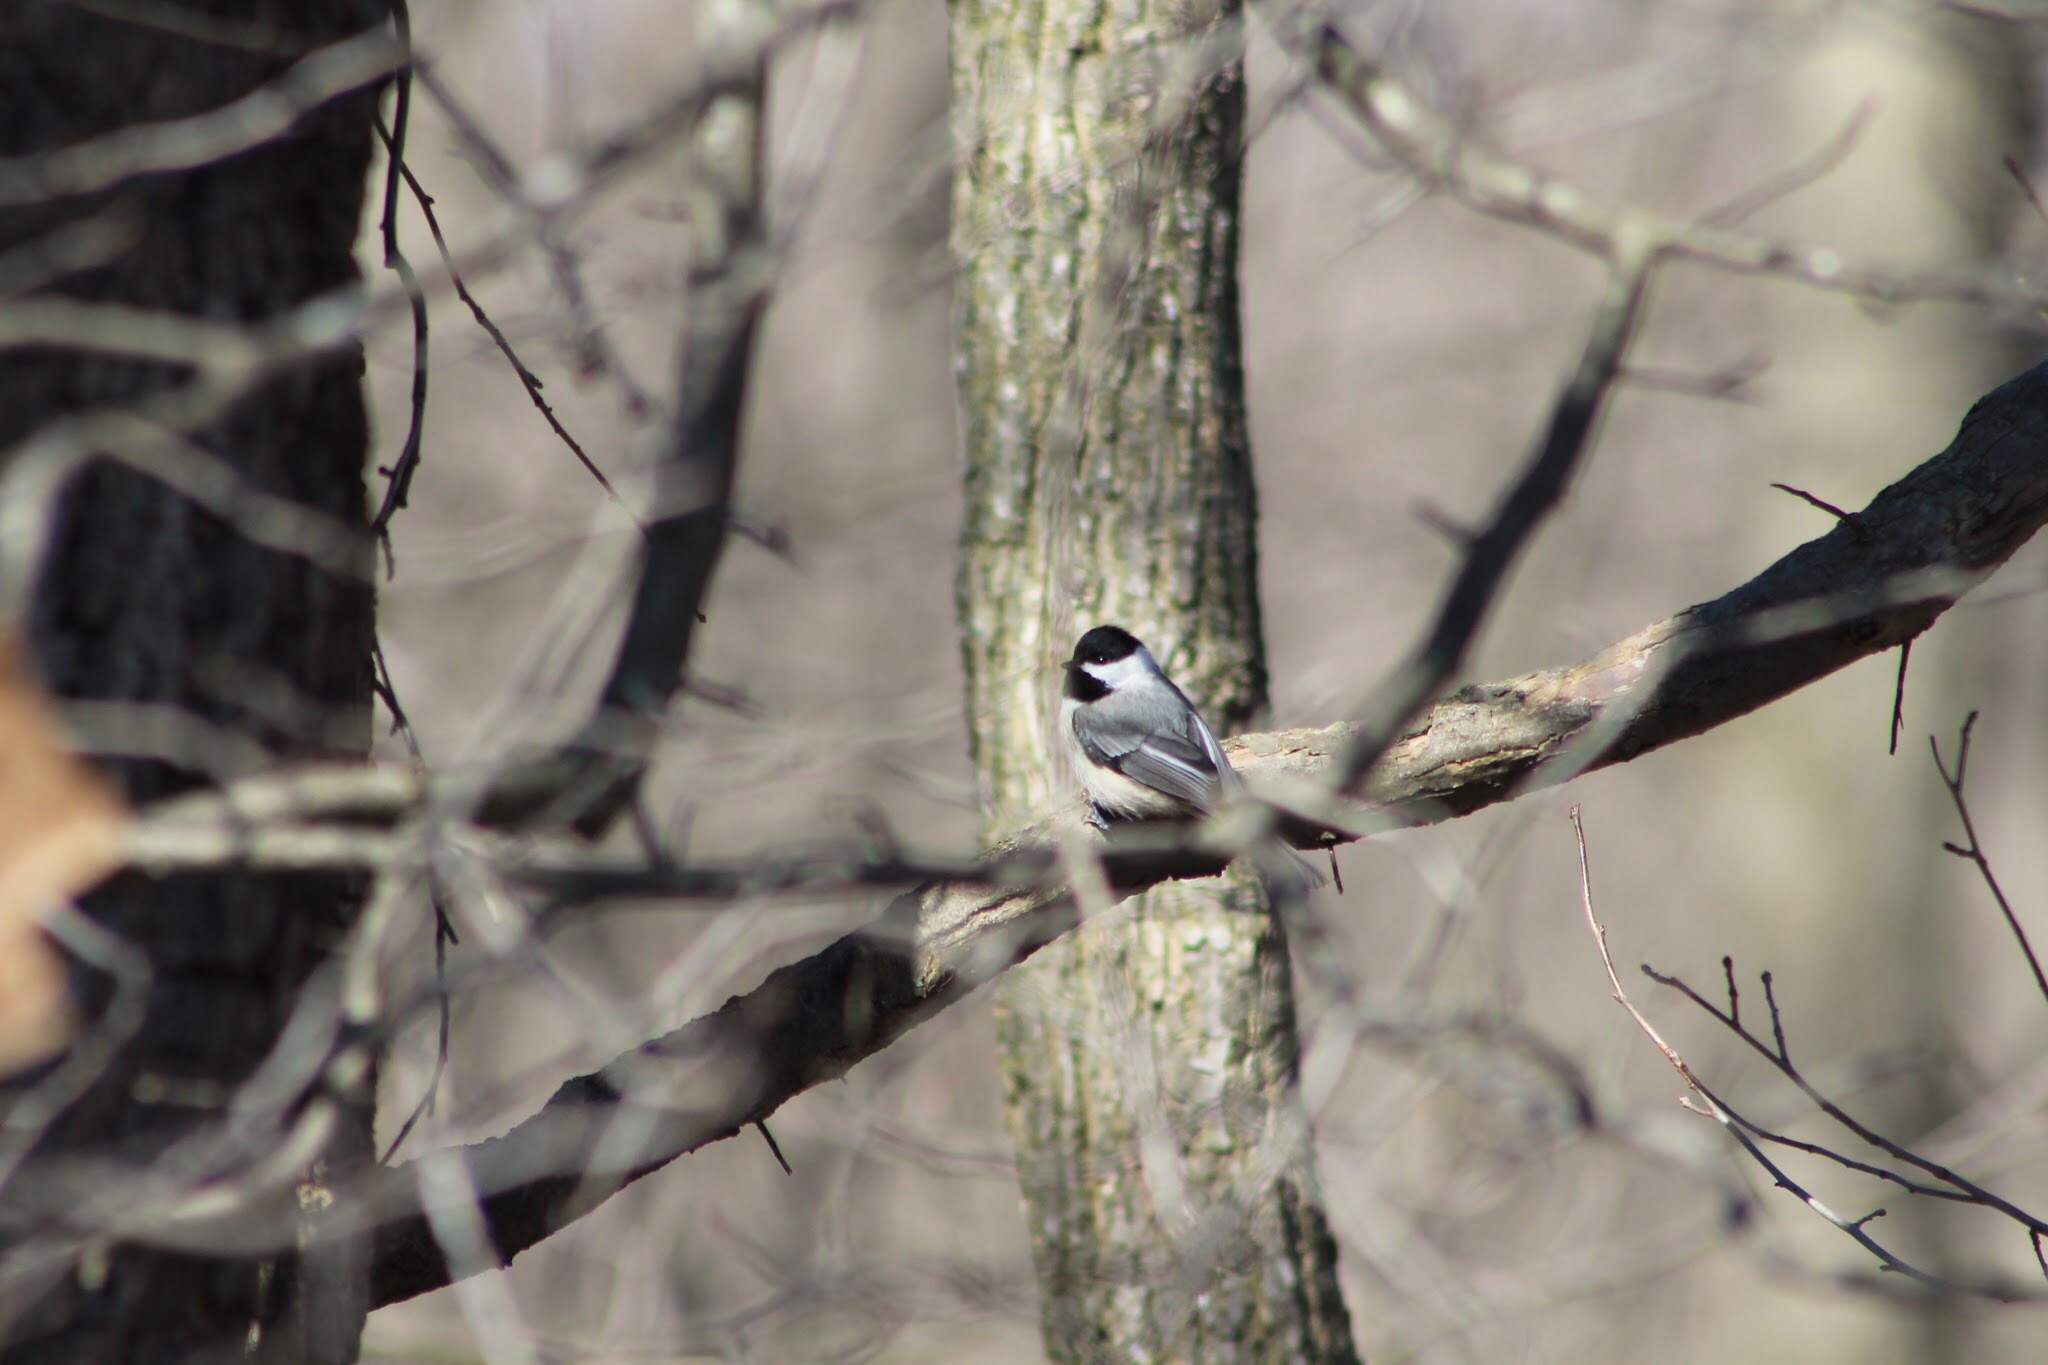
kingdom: Animalia
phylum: Chordata
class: Aves
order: Passeriformes
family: Paridae
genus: Poecile
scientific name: Poecile
